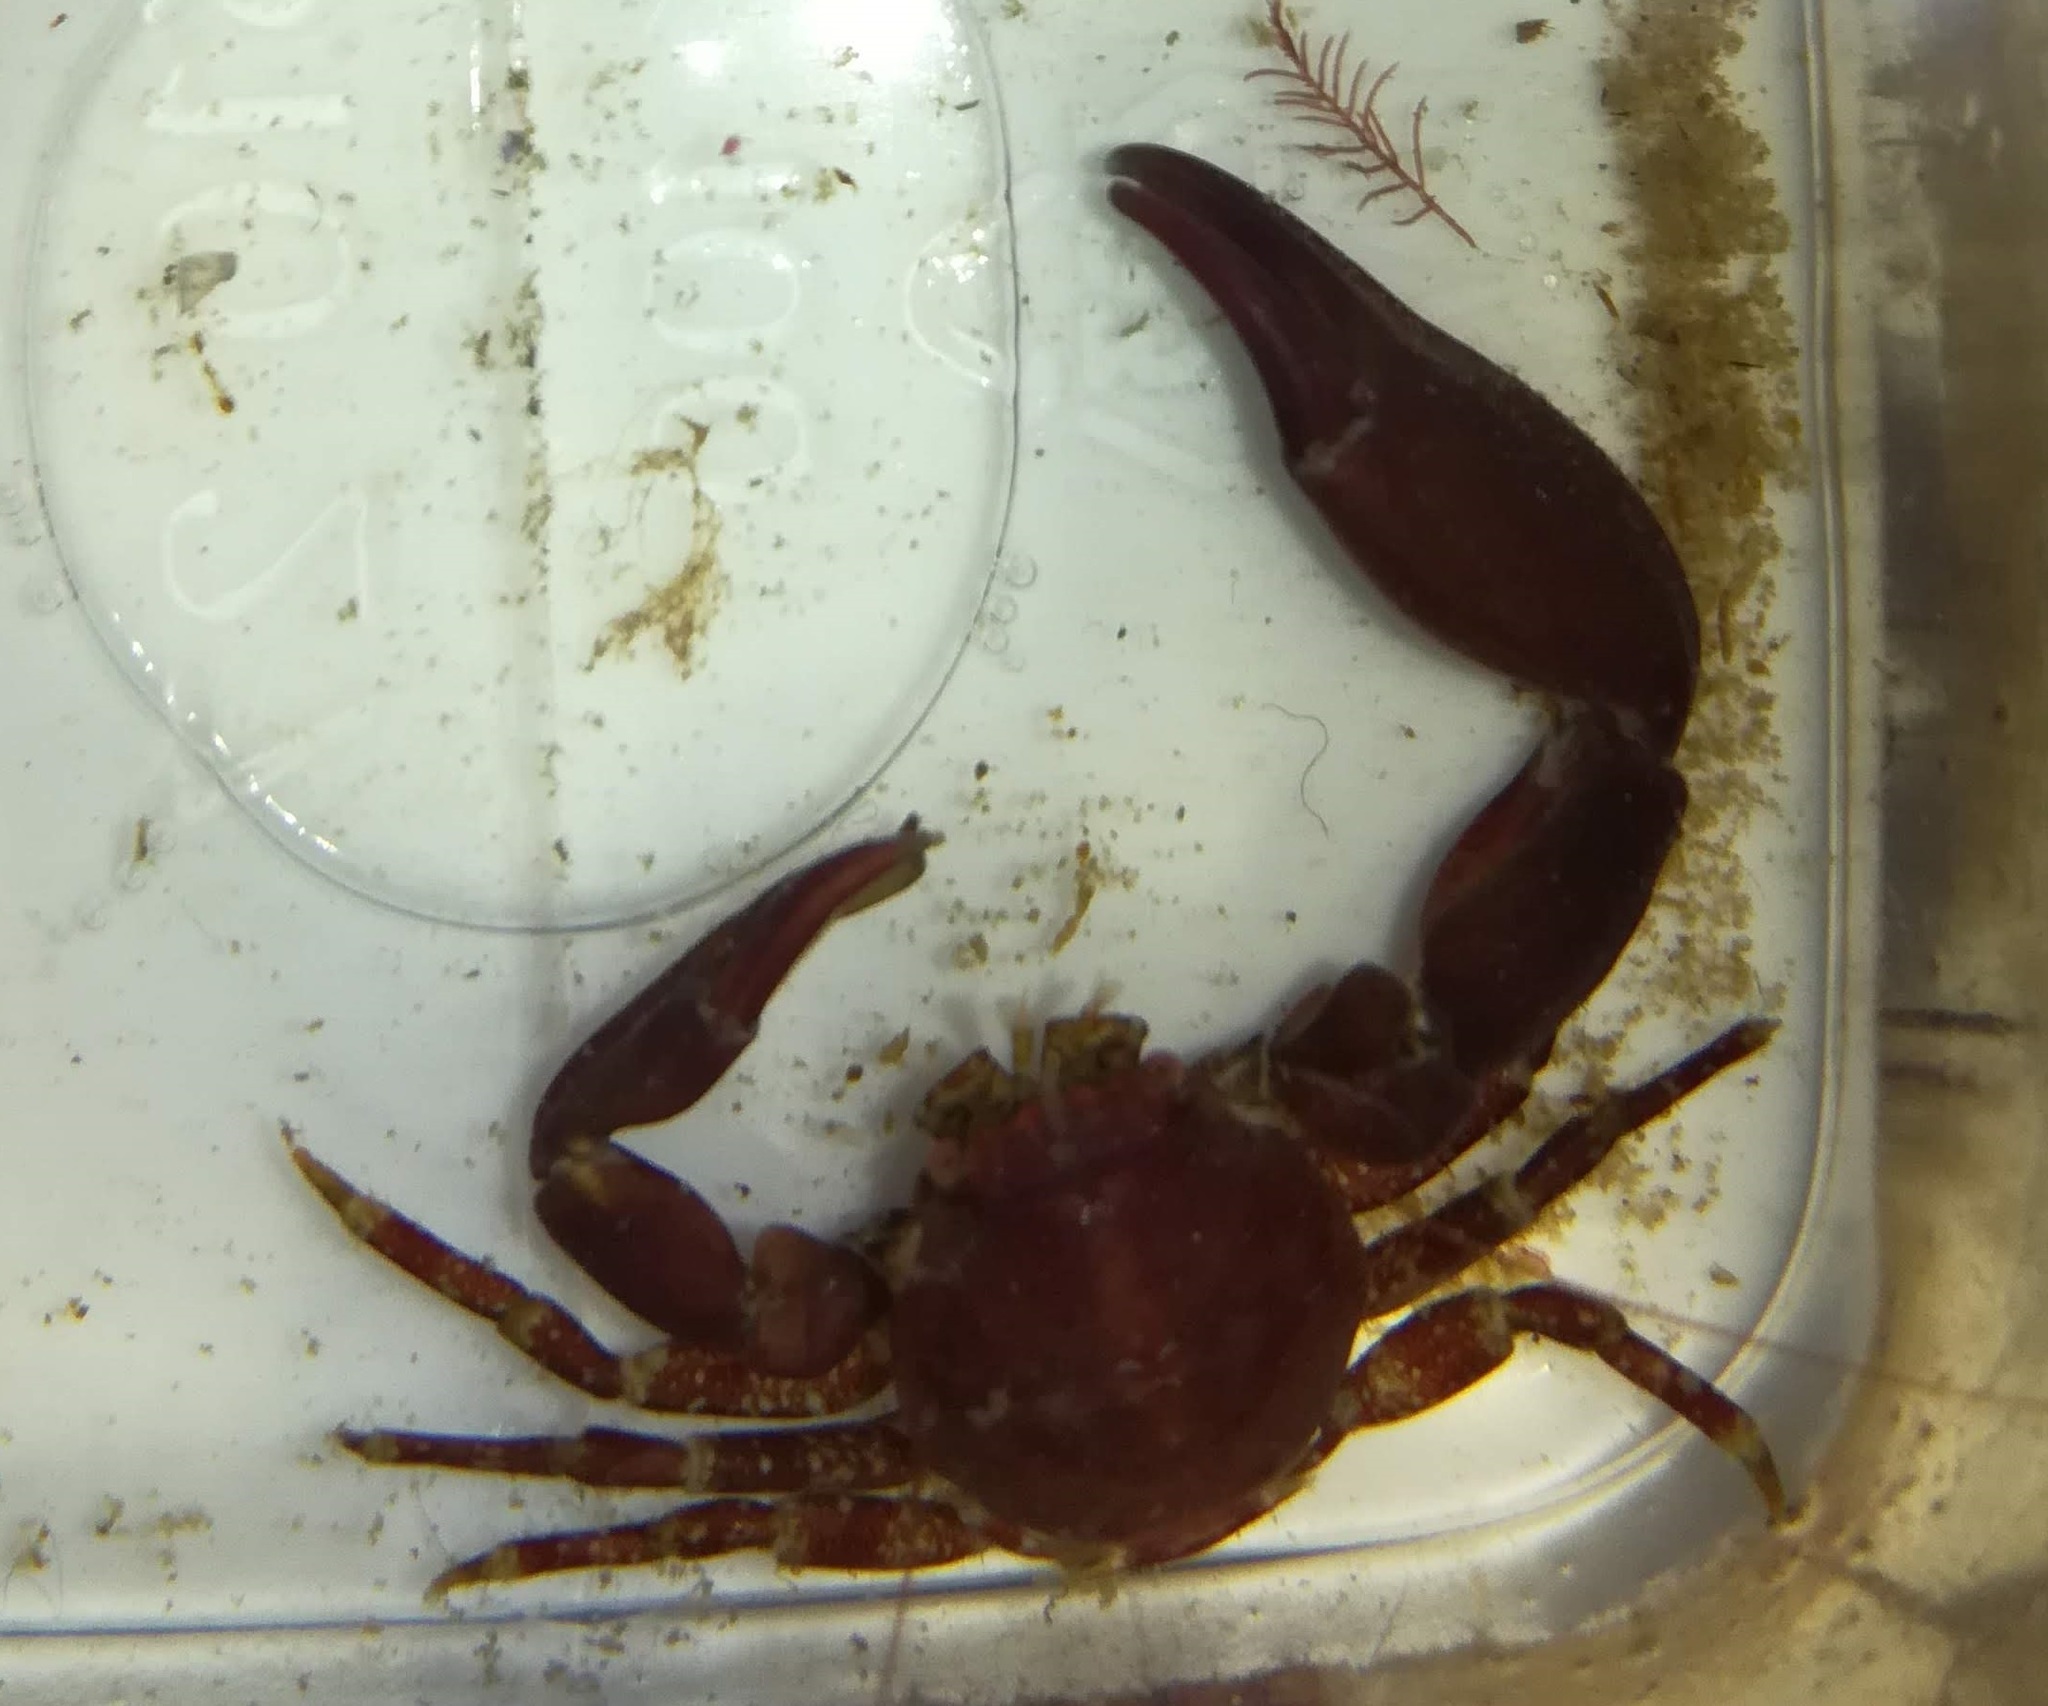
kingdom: Animalia
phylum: Arthropoda
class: Malacostraca
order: Decapoda
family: Porcellanidae
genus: Pisidia
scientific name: Pisidia longicornis
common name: Long clawed porcelain crab
